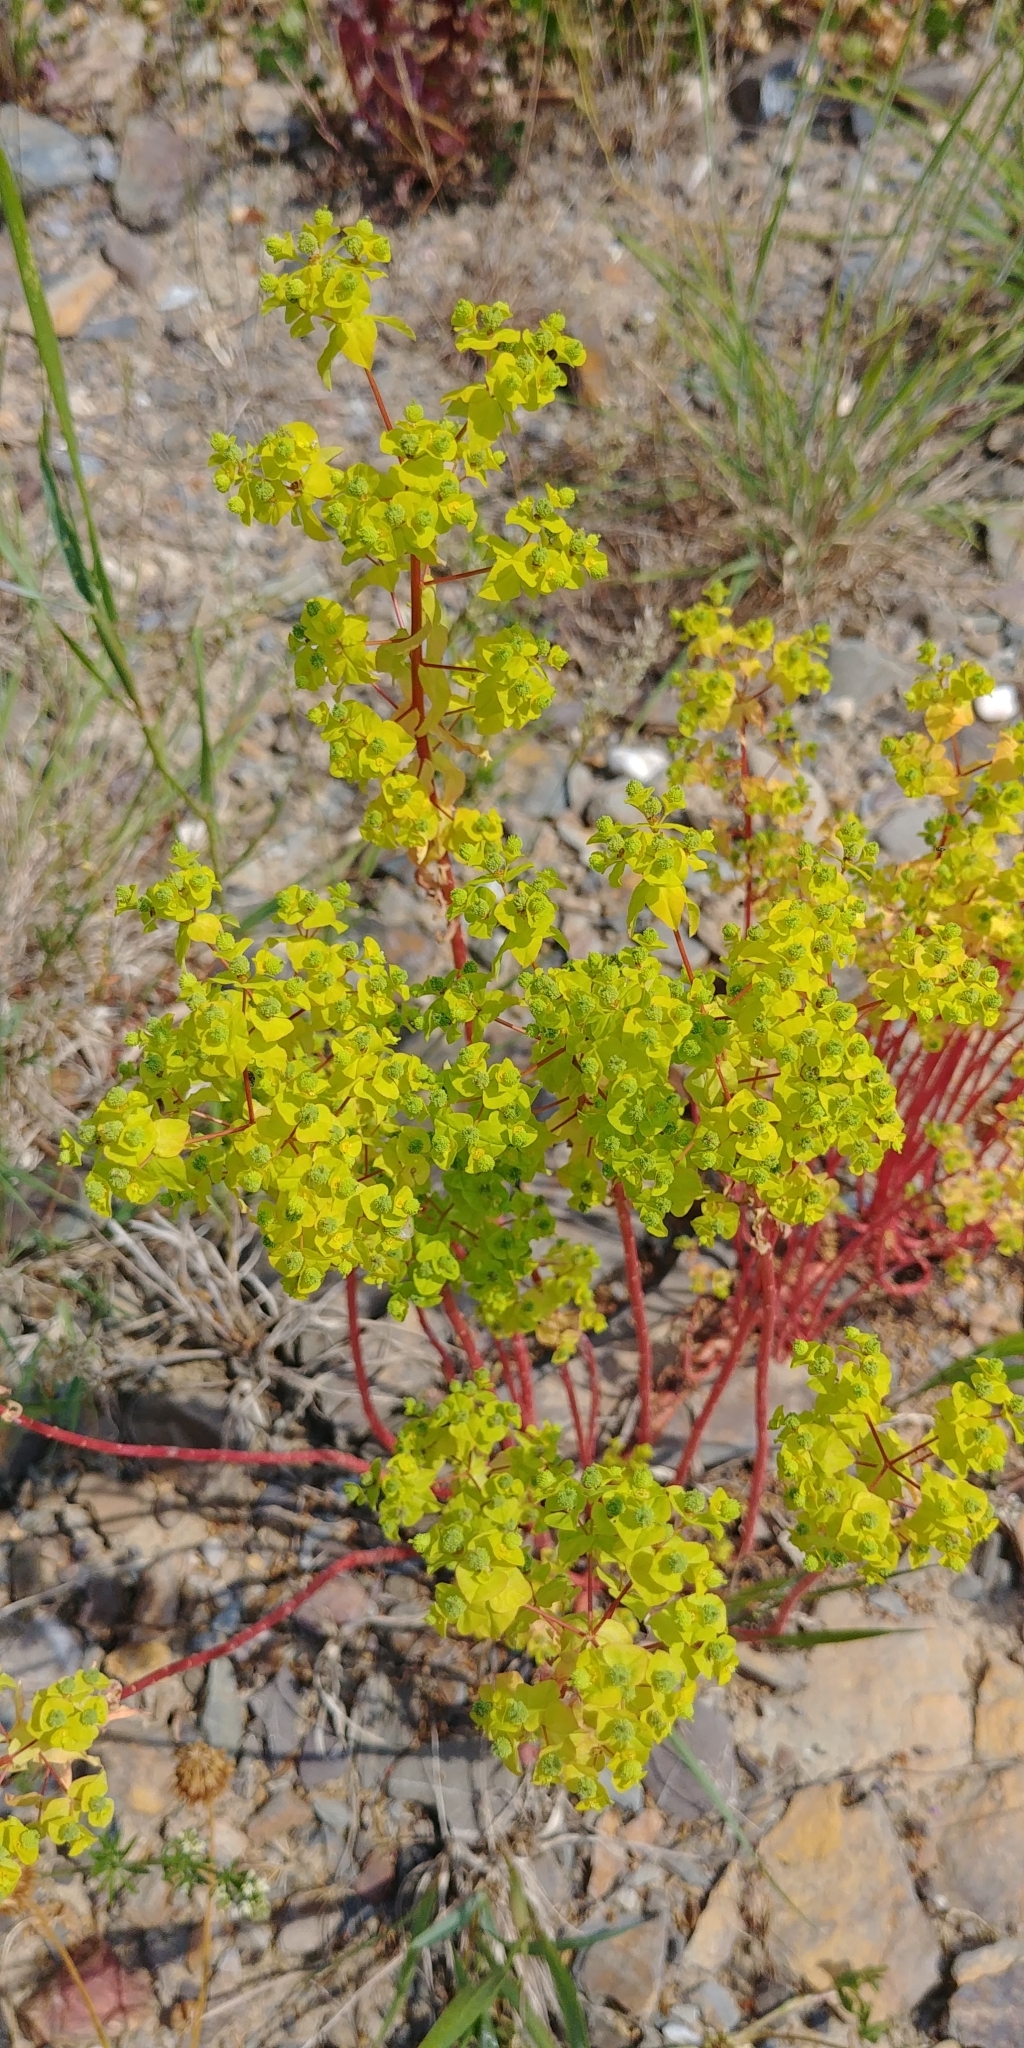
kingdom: Plantae
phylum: Tracheophyta
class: Magnoliopsida
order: Malpighiales
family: Euphorbiaceae
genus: Euphorbia
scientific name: Euphorbia stricta
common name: Upright spurge
